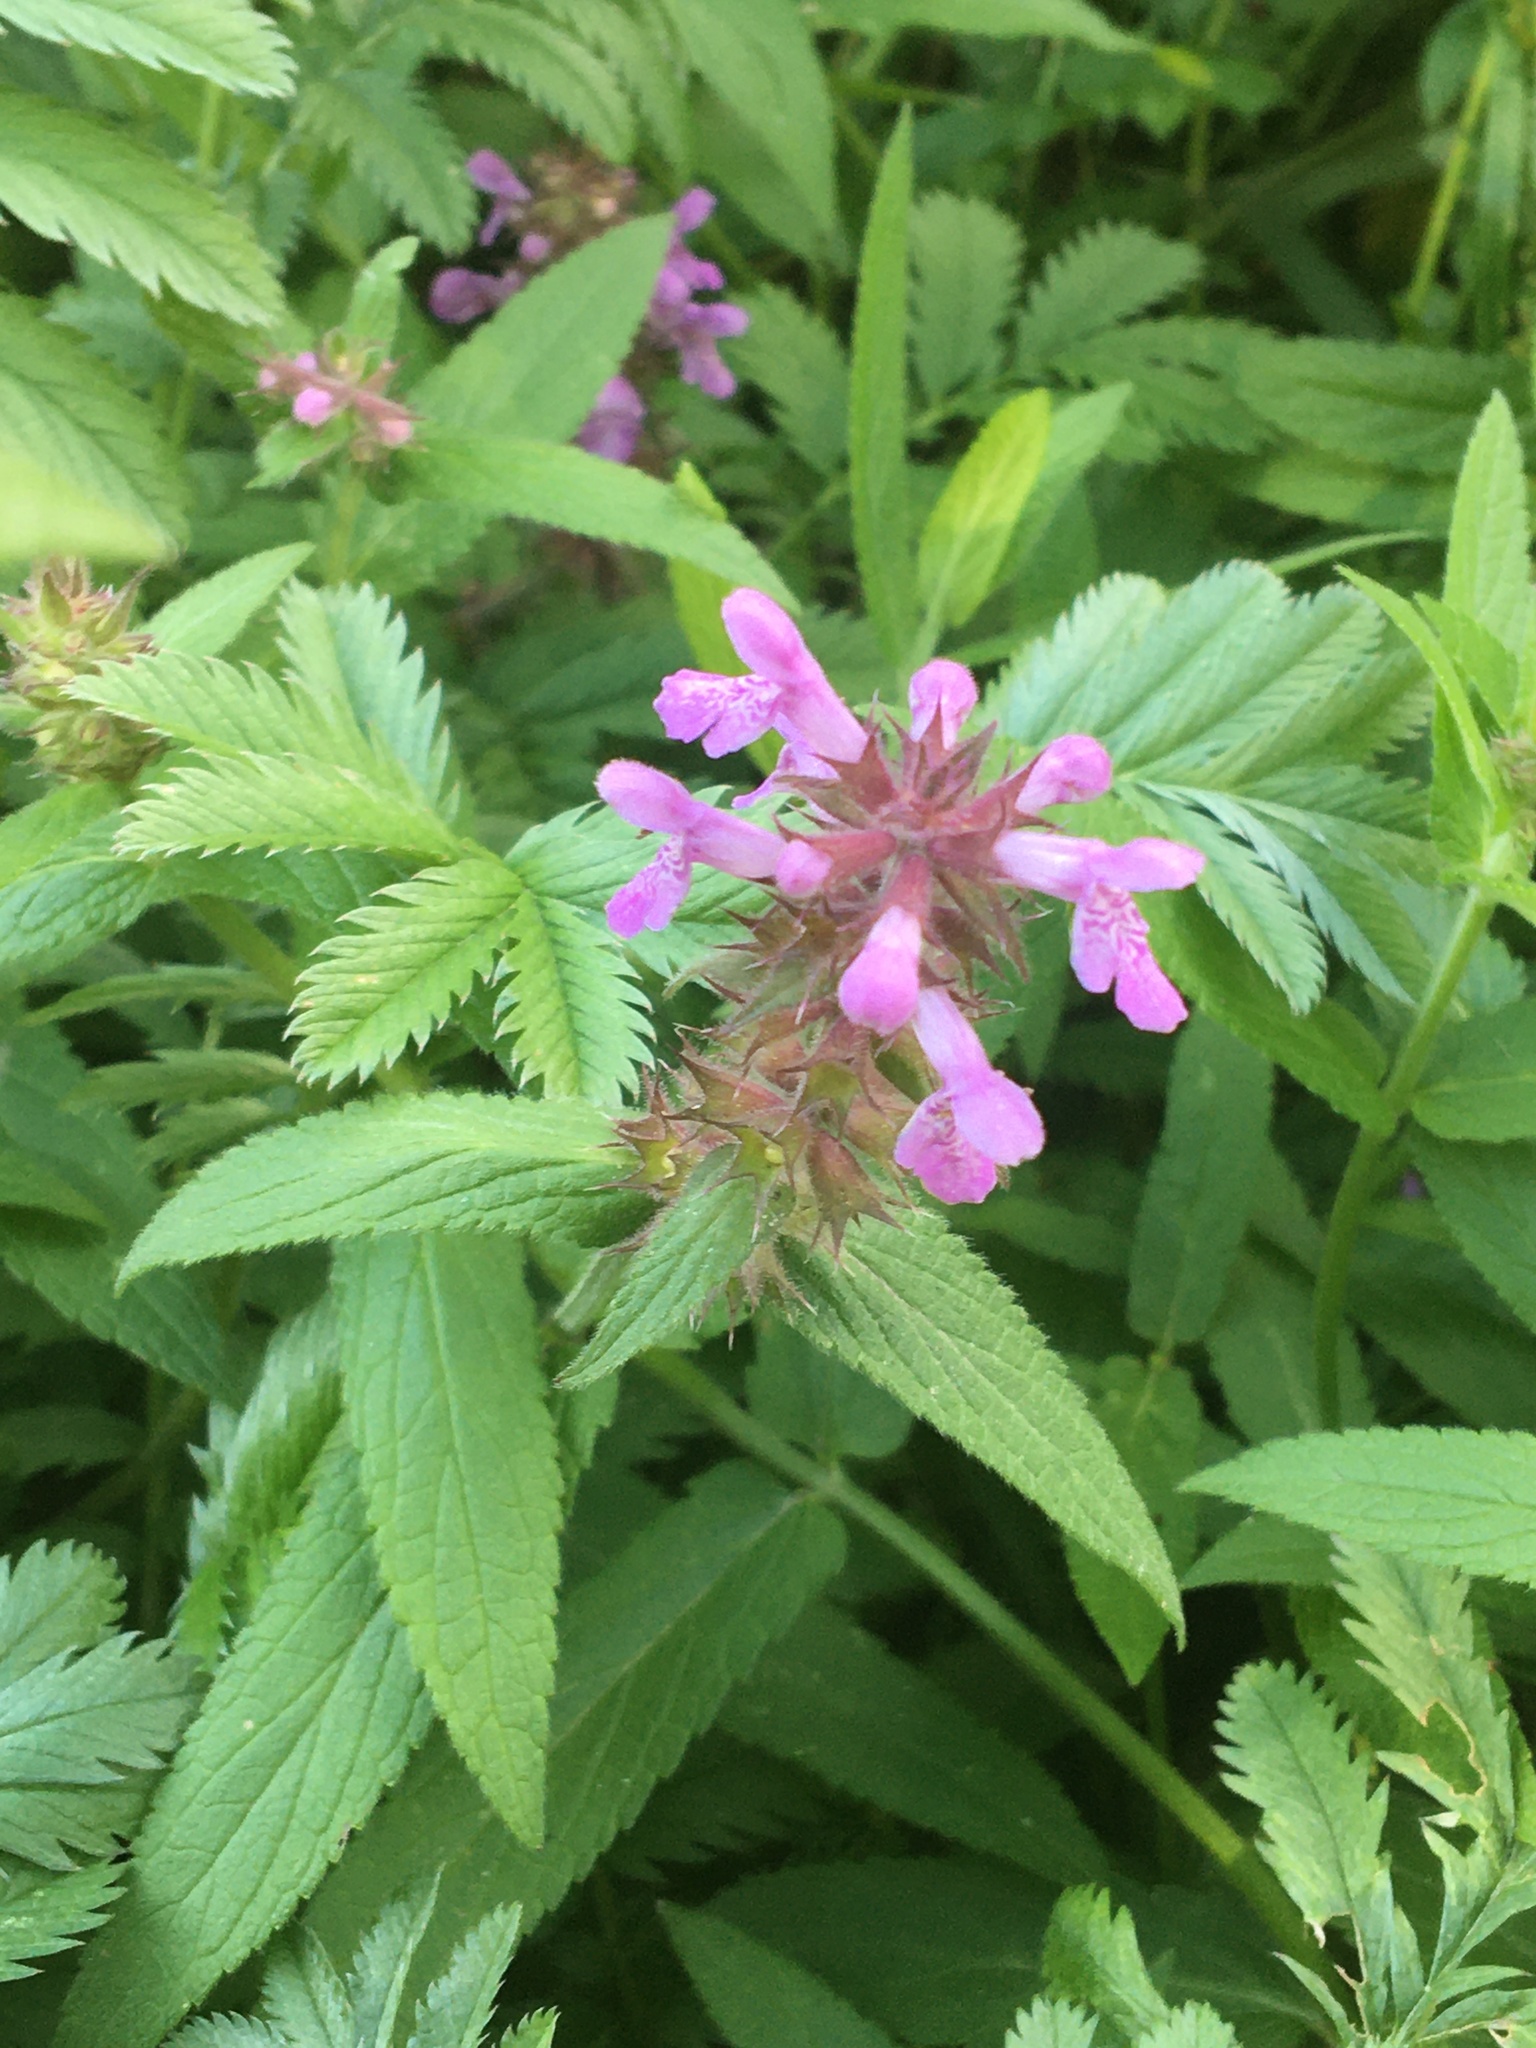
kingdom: Plantae
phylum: Tracheophyta
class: Magnoliopsida
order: Lamiales
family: Lamiaceae
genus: Betonica
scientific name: Betonica officinalis
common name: Bishop's-wort
